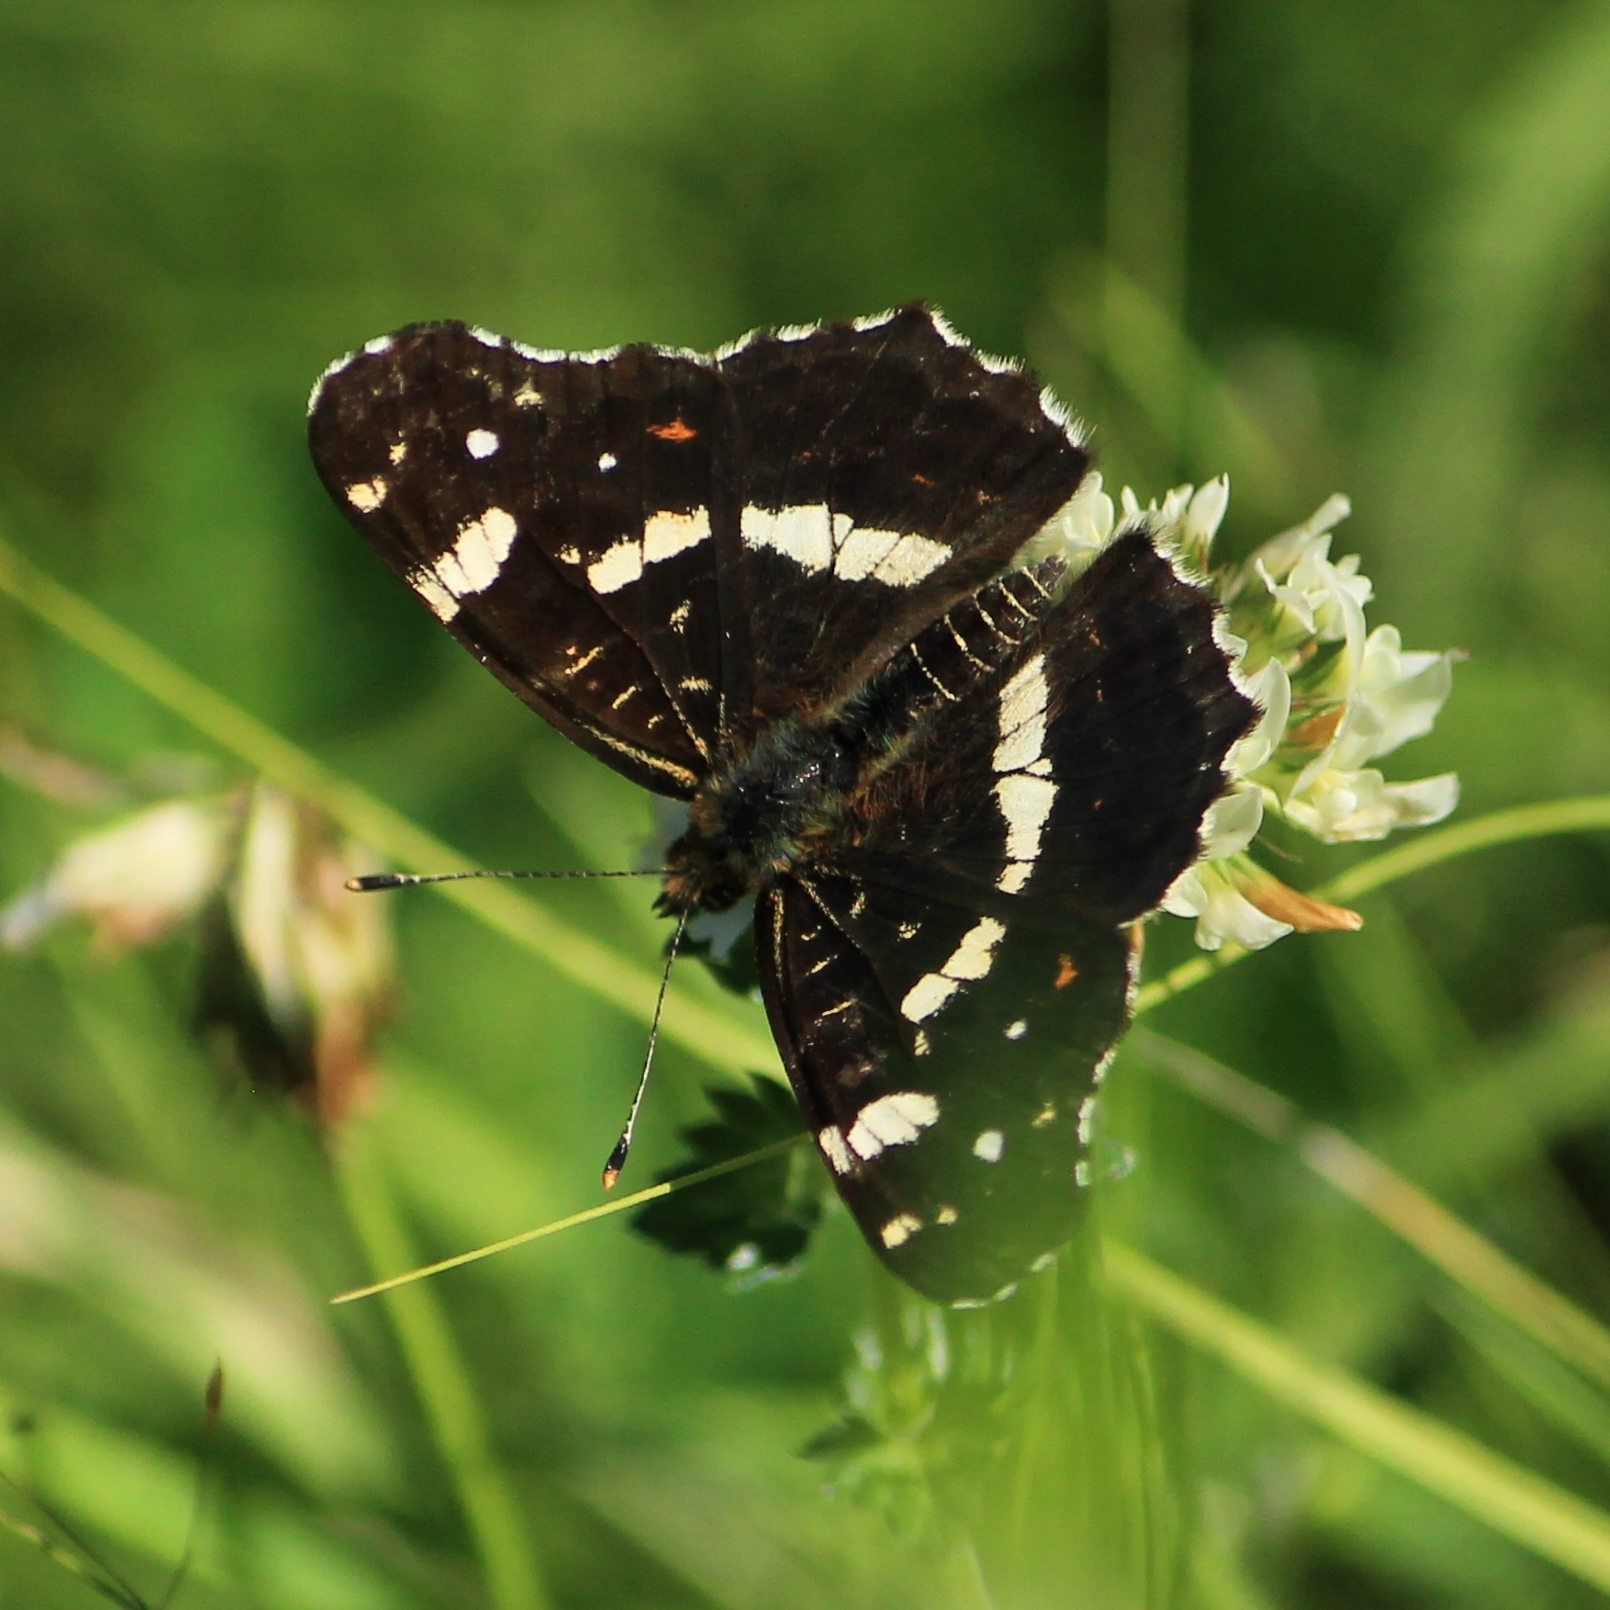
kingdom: Animalia
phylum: Arthropoda
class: Insecta
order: Lepidoptera
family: Nymphalidae
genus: Araschnia
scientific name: Araschnia levana
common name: Map butterfly
